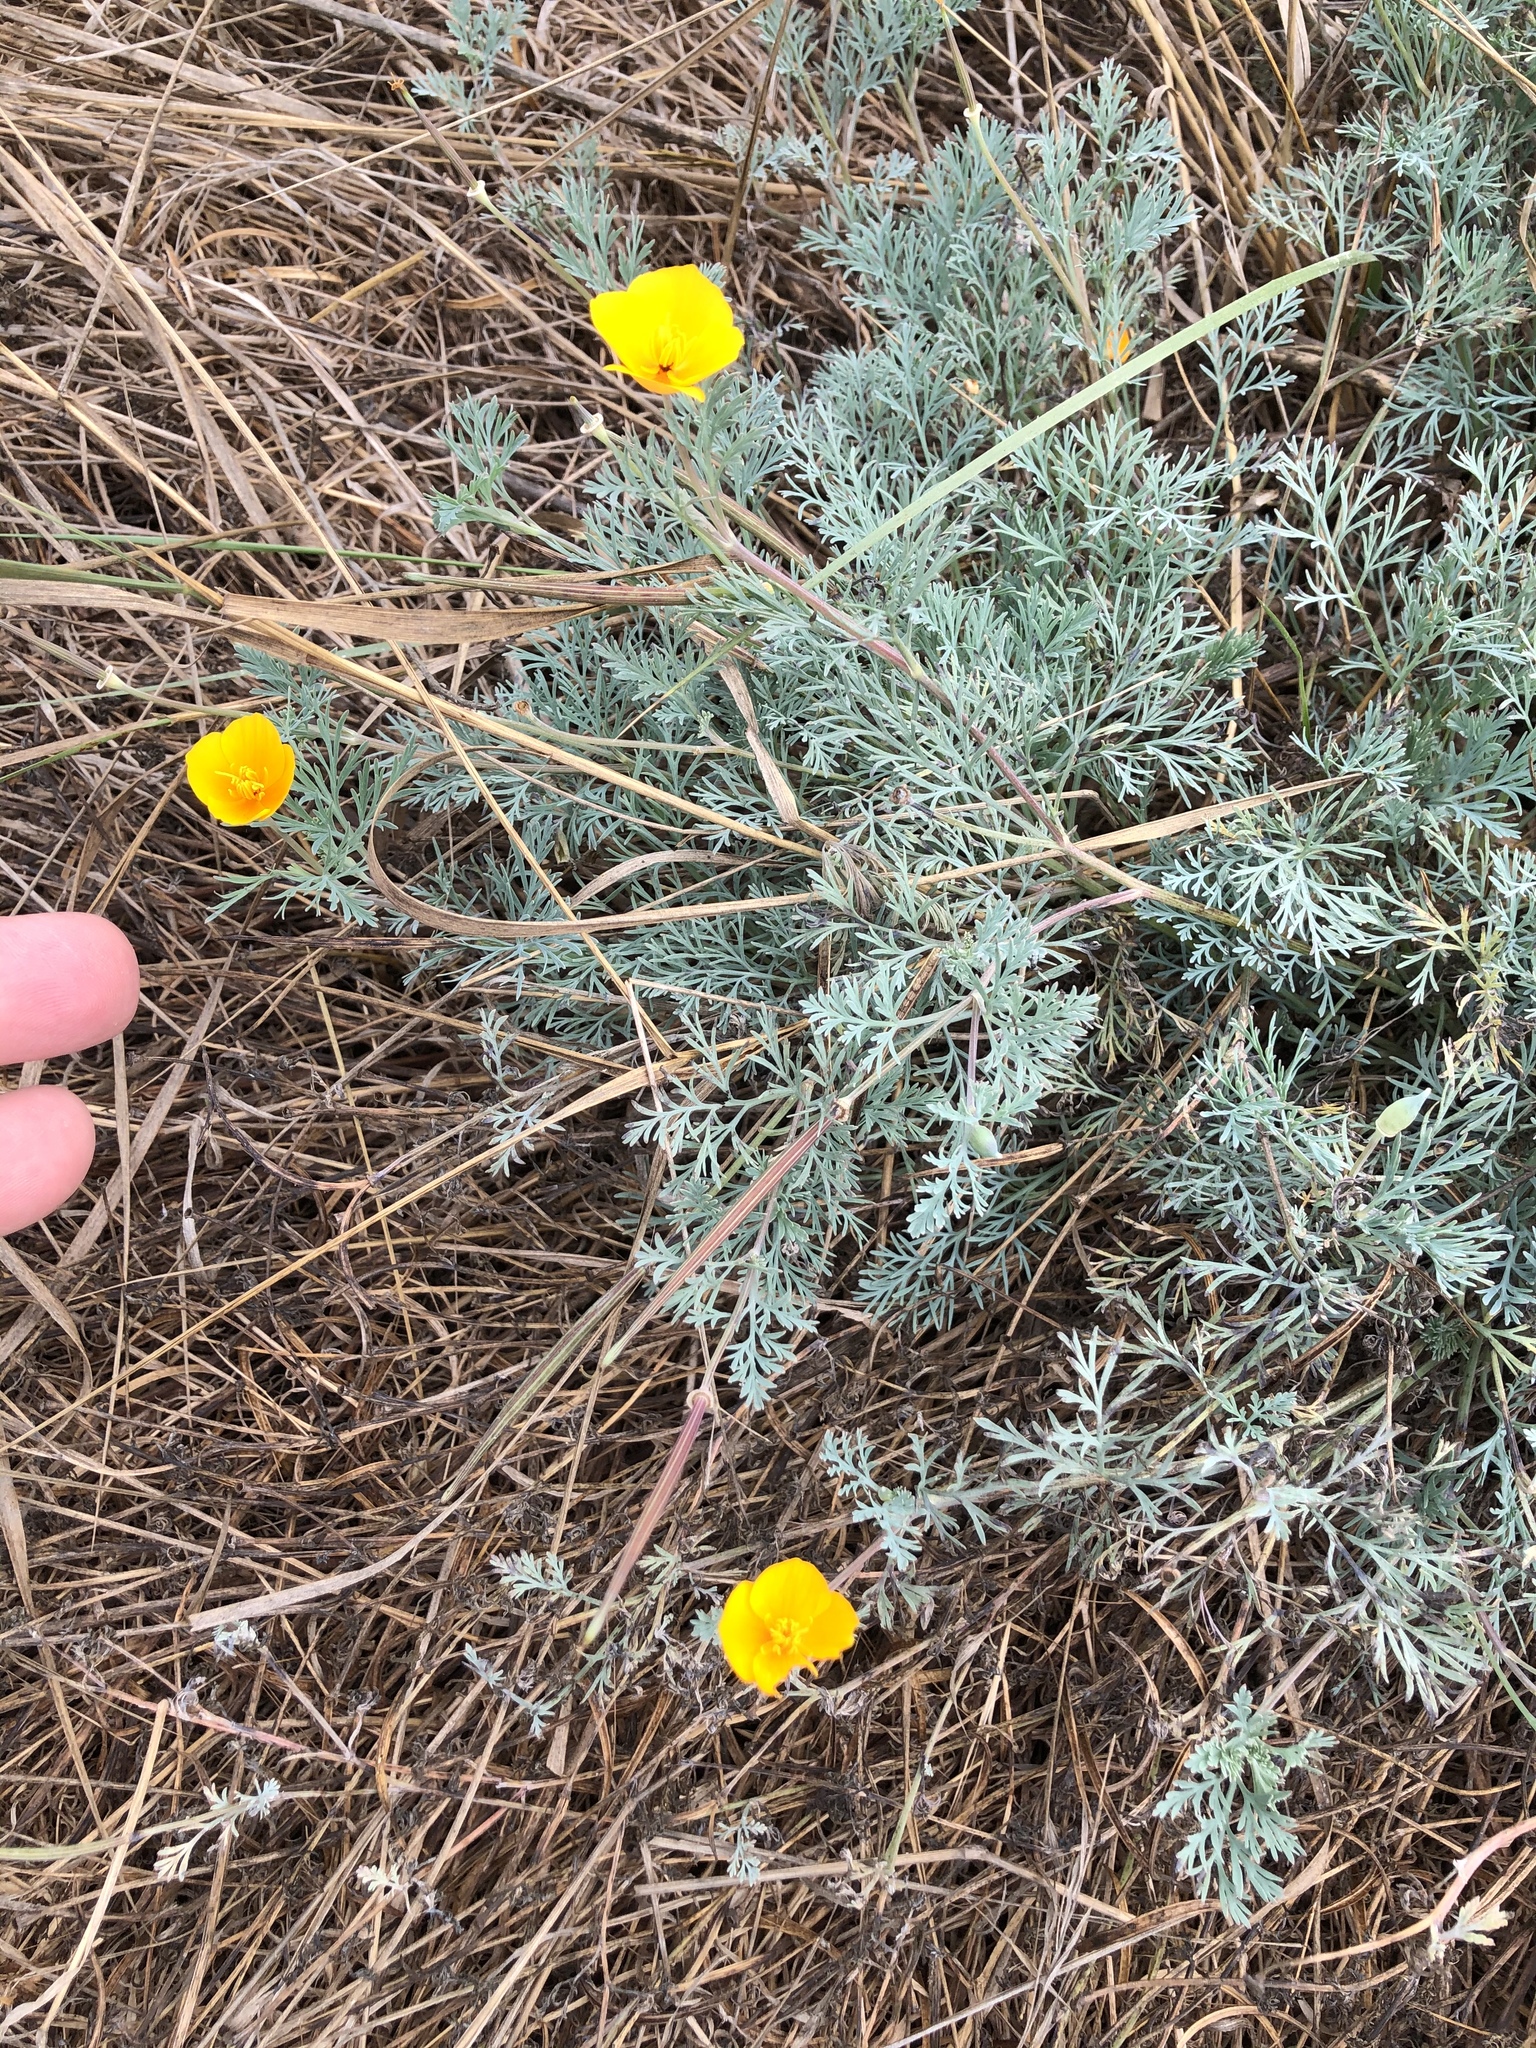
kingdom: Plantae
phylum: Tracheophyta
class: Magnoliopsida
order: Ranunculales
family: Papaveraceae
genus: Eschscholzia
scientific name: Eschscholzia californica
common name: California poppy
